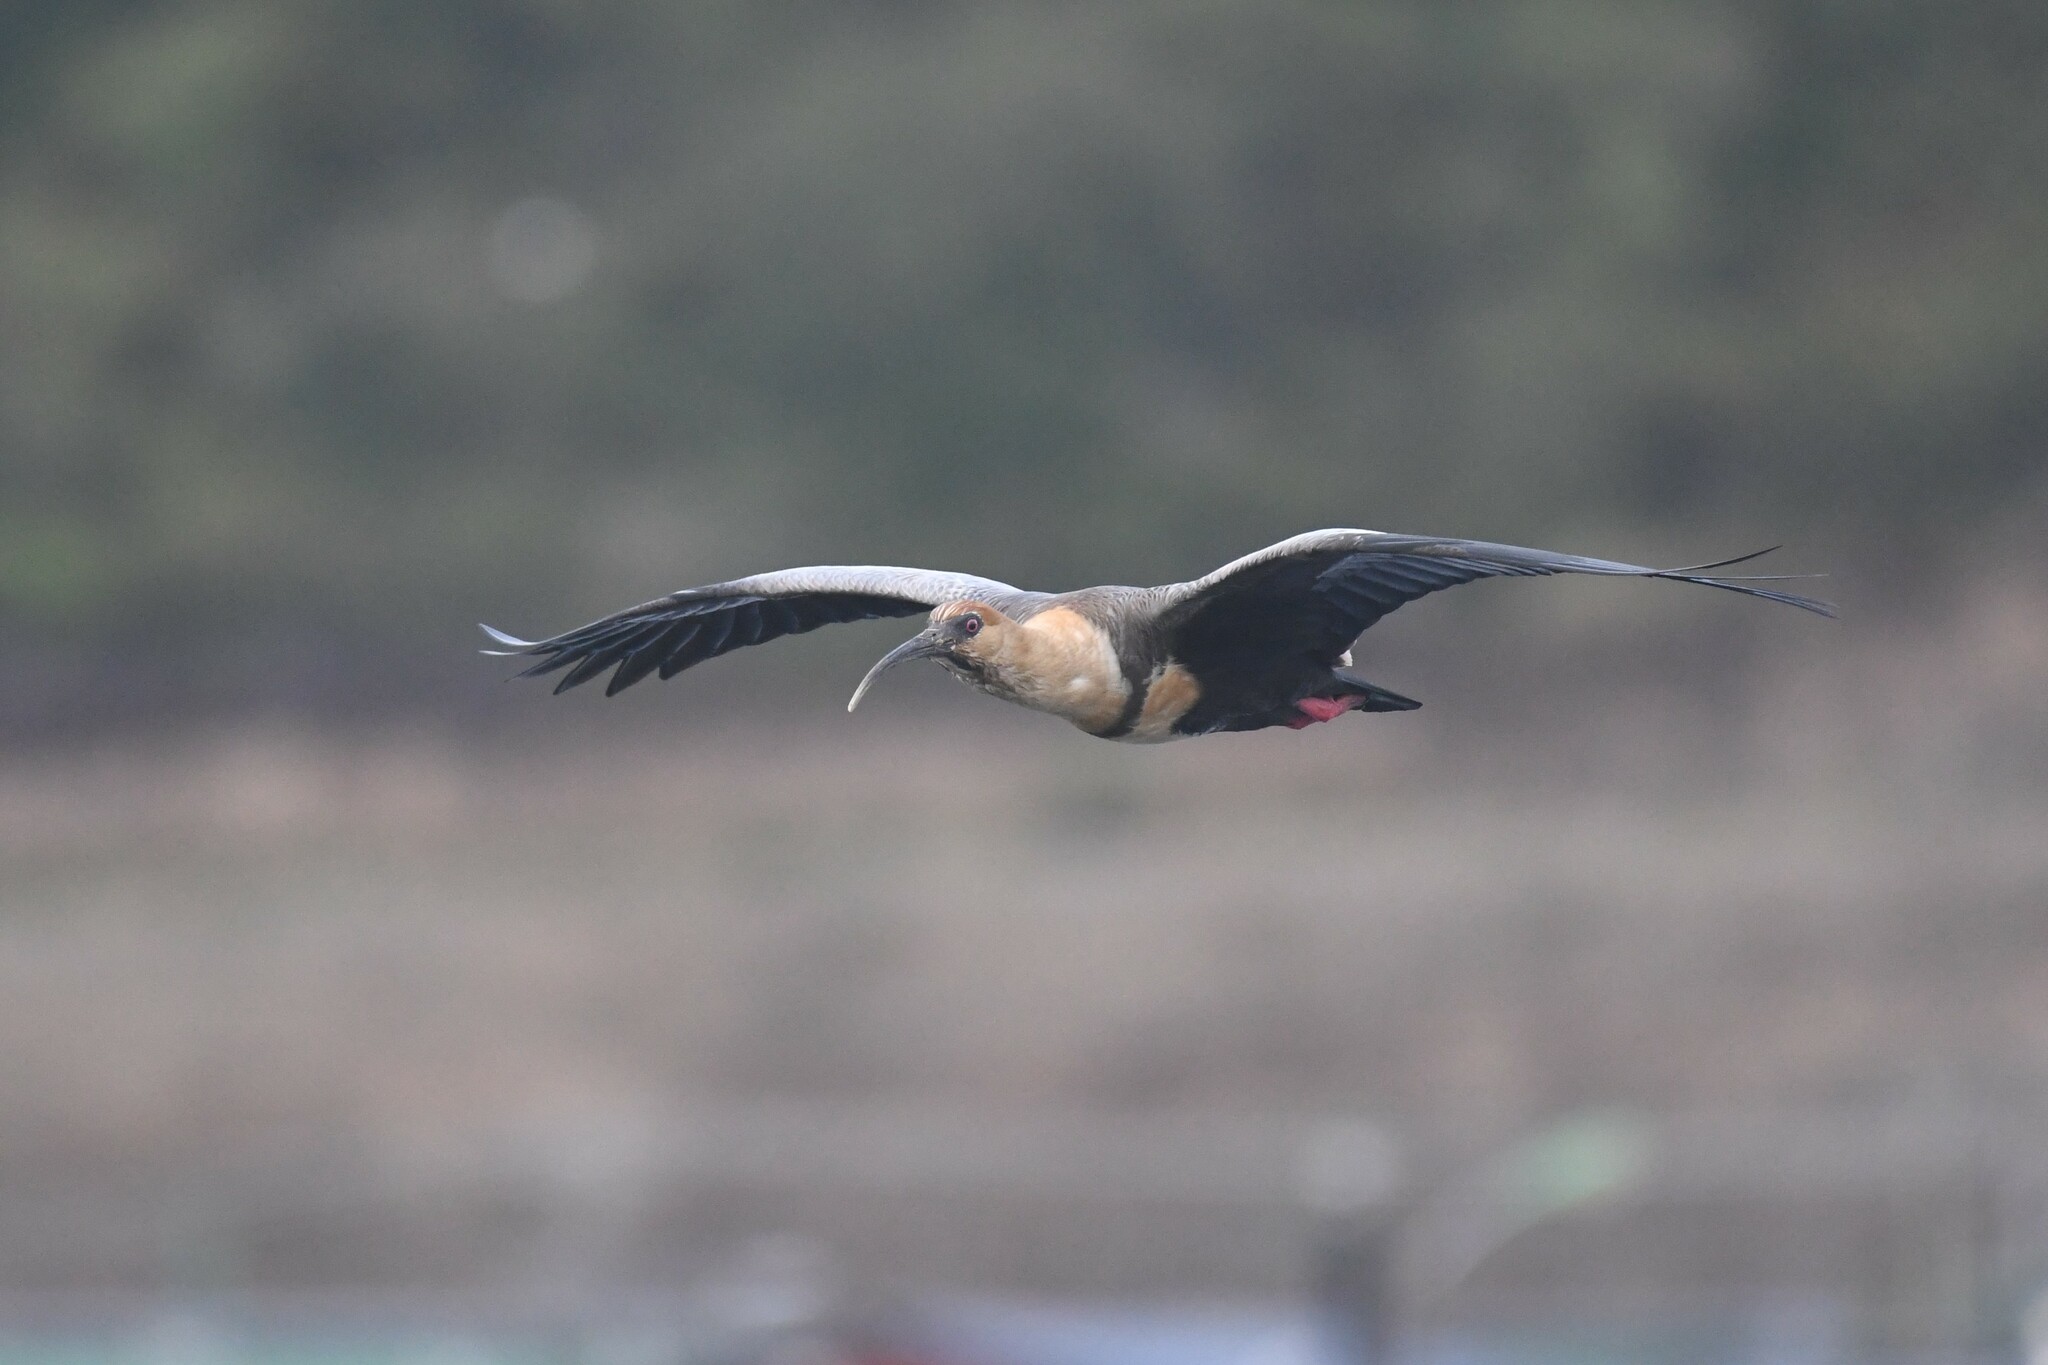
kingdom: Animalia
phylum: Chordata
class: Aves
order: Pelecaniformes
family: Threskiornithidae
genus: Theristicus
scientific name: Theristicus melanopis
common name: Black-faced ibis
